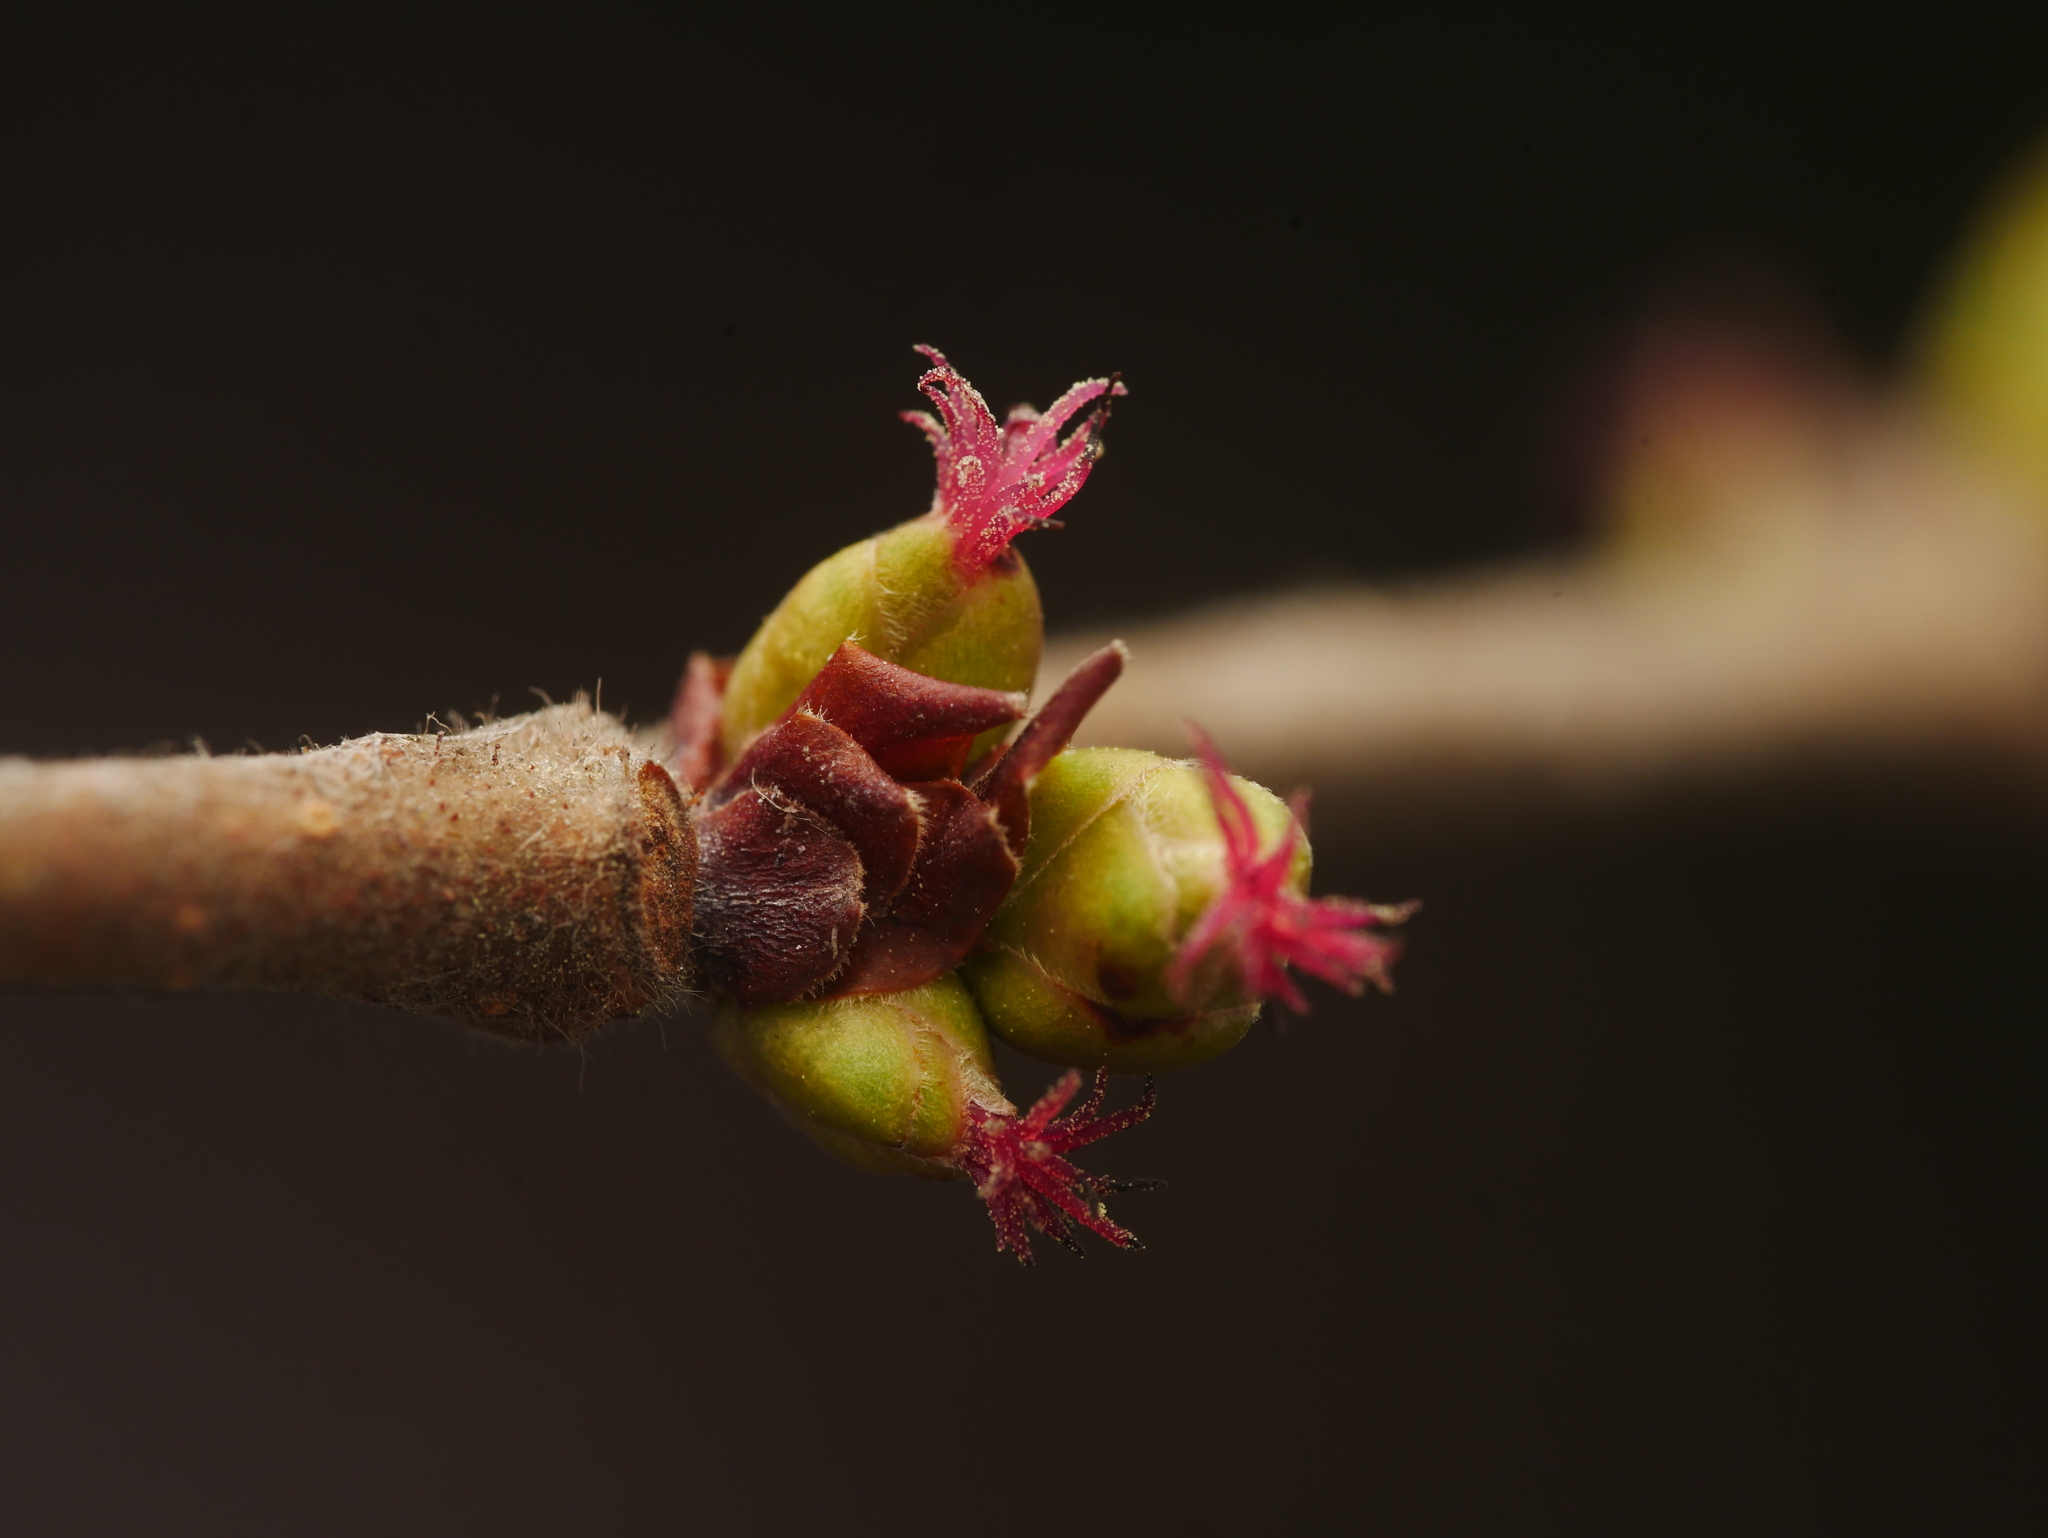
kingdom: Plantae
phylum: Tracheophyta
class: Magnoliopsida
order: Fagales
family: Betulaceae
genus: Corylus
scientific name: Corylus avellana
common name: European hazel
